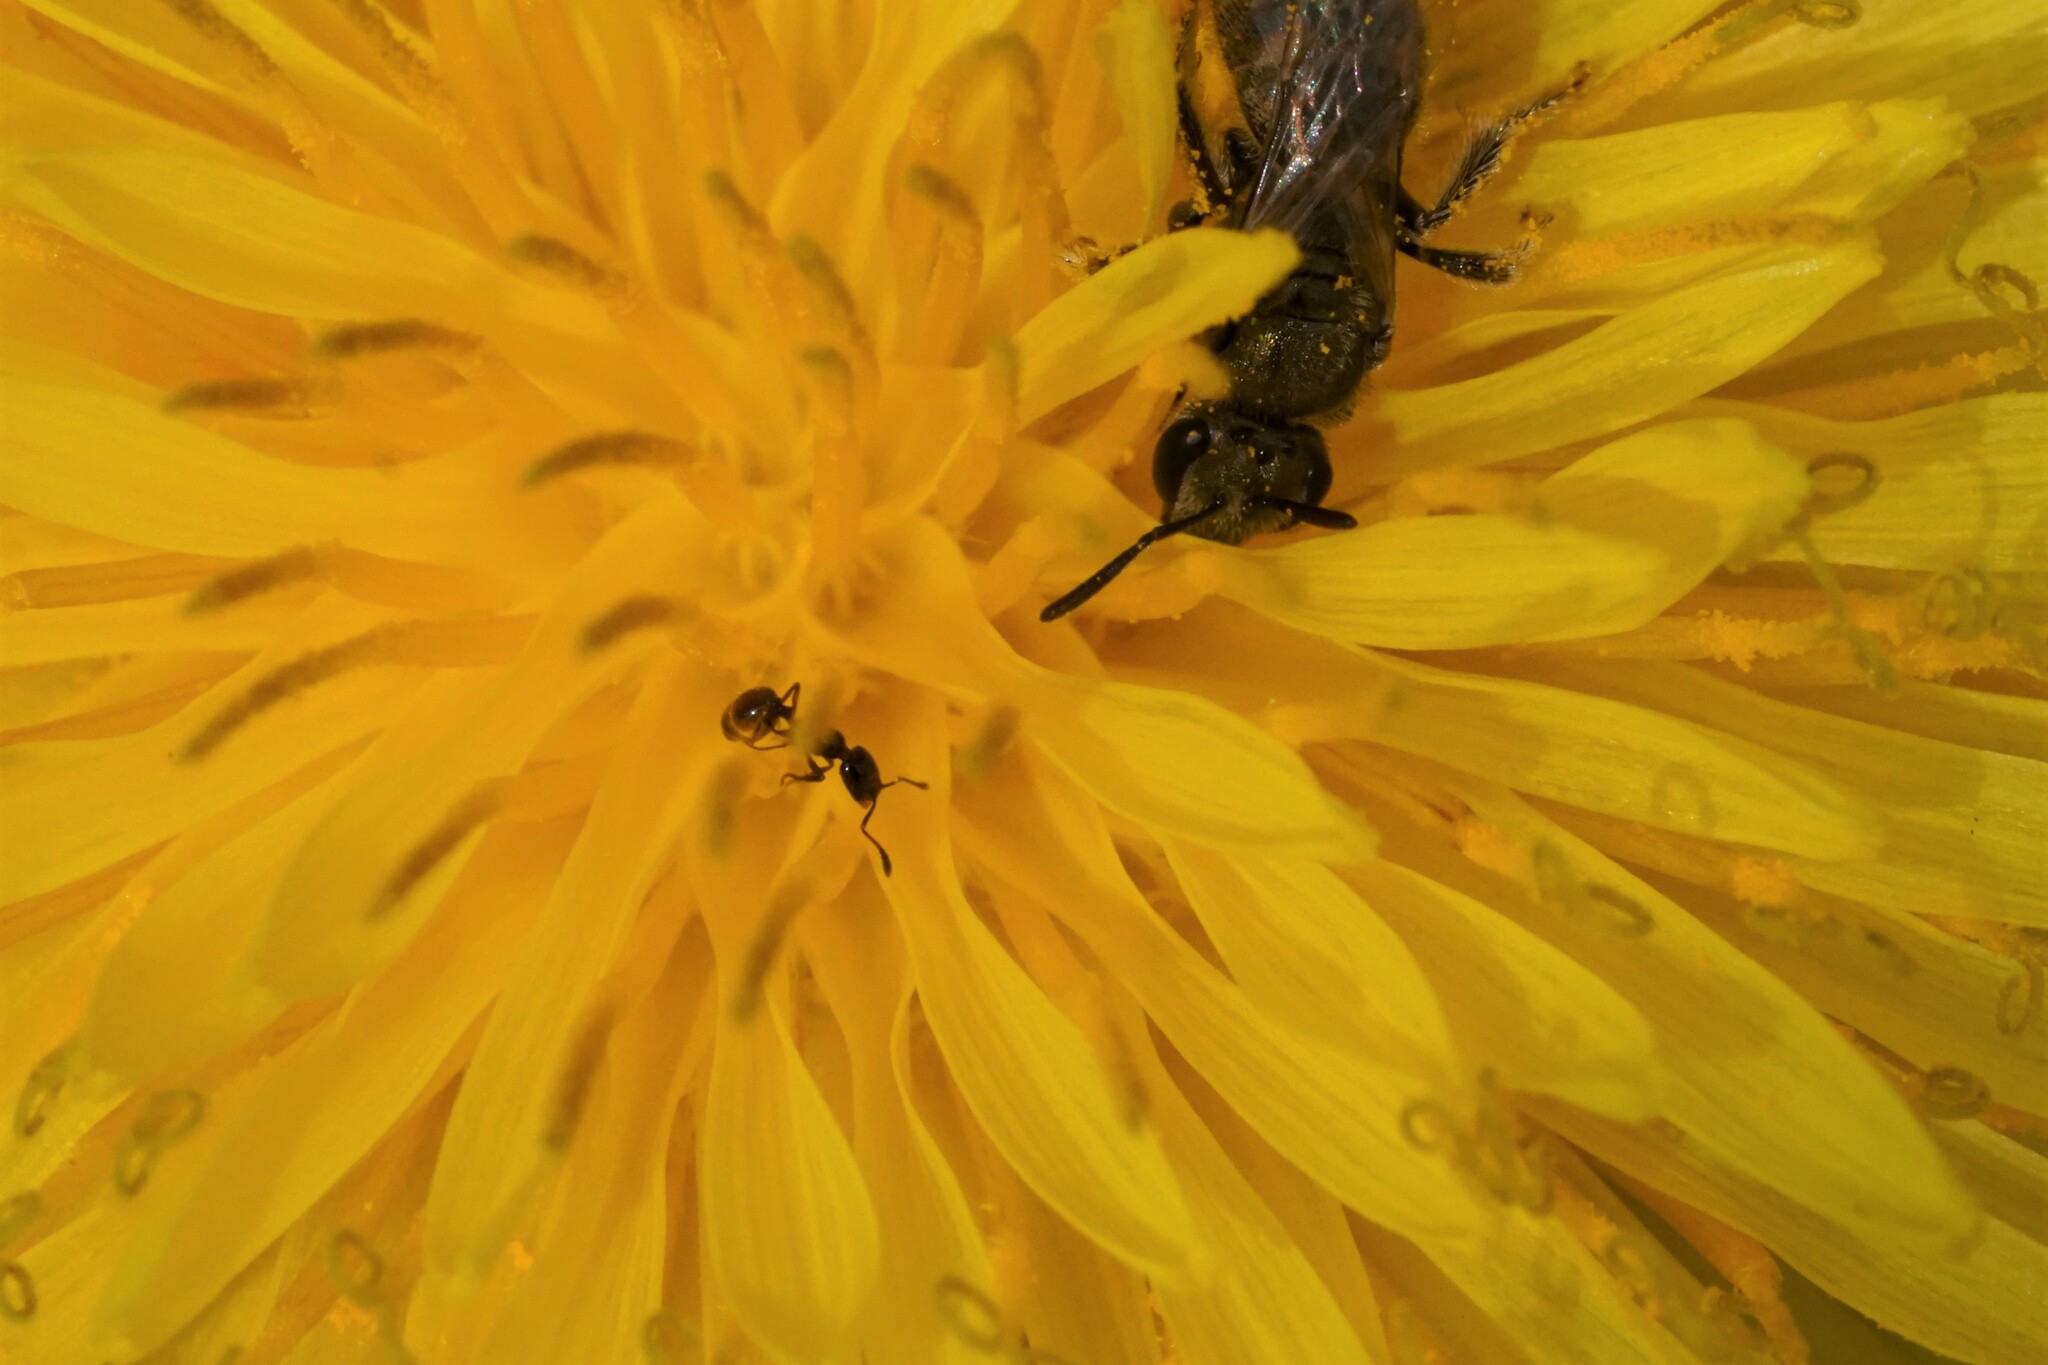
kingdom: Animalia
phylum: Arthropoda
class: Insecta
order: Hymenoptera
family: Formicidae
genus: Monomorium
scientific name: Monomorium
